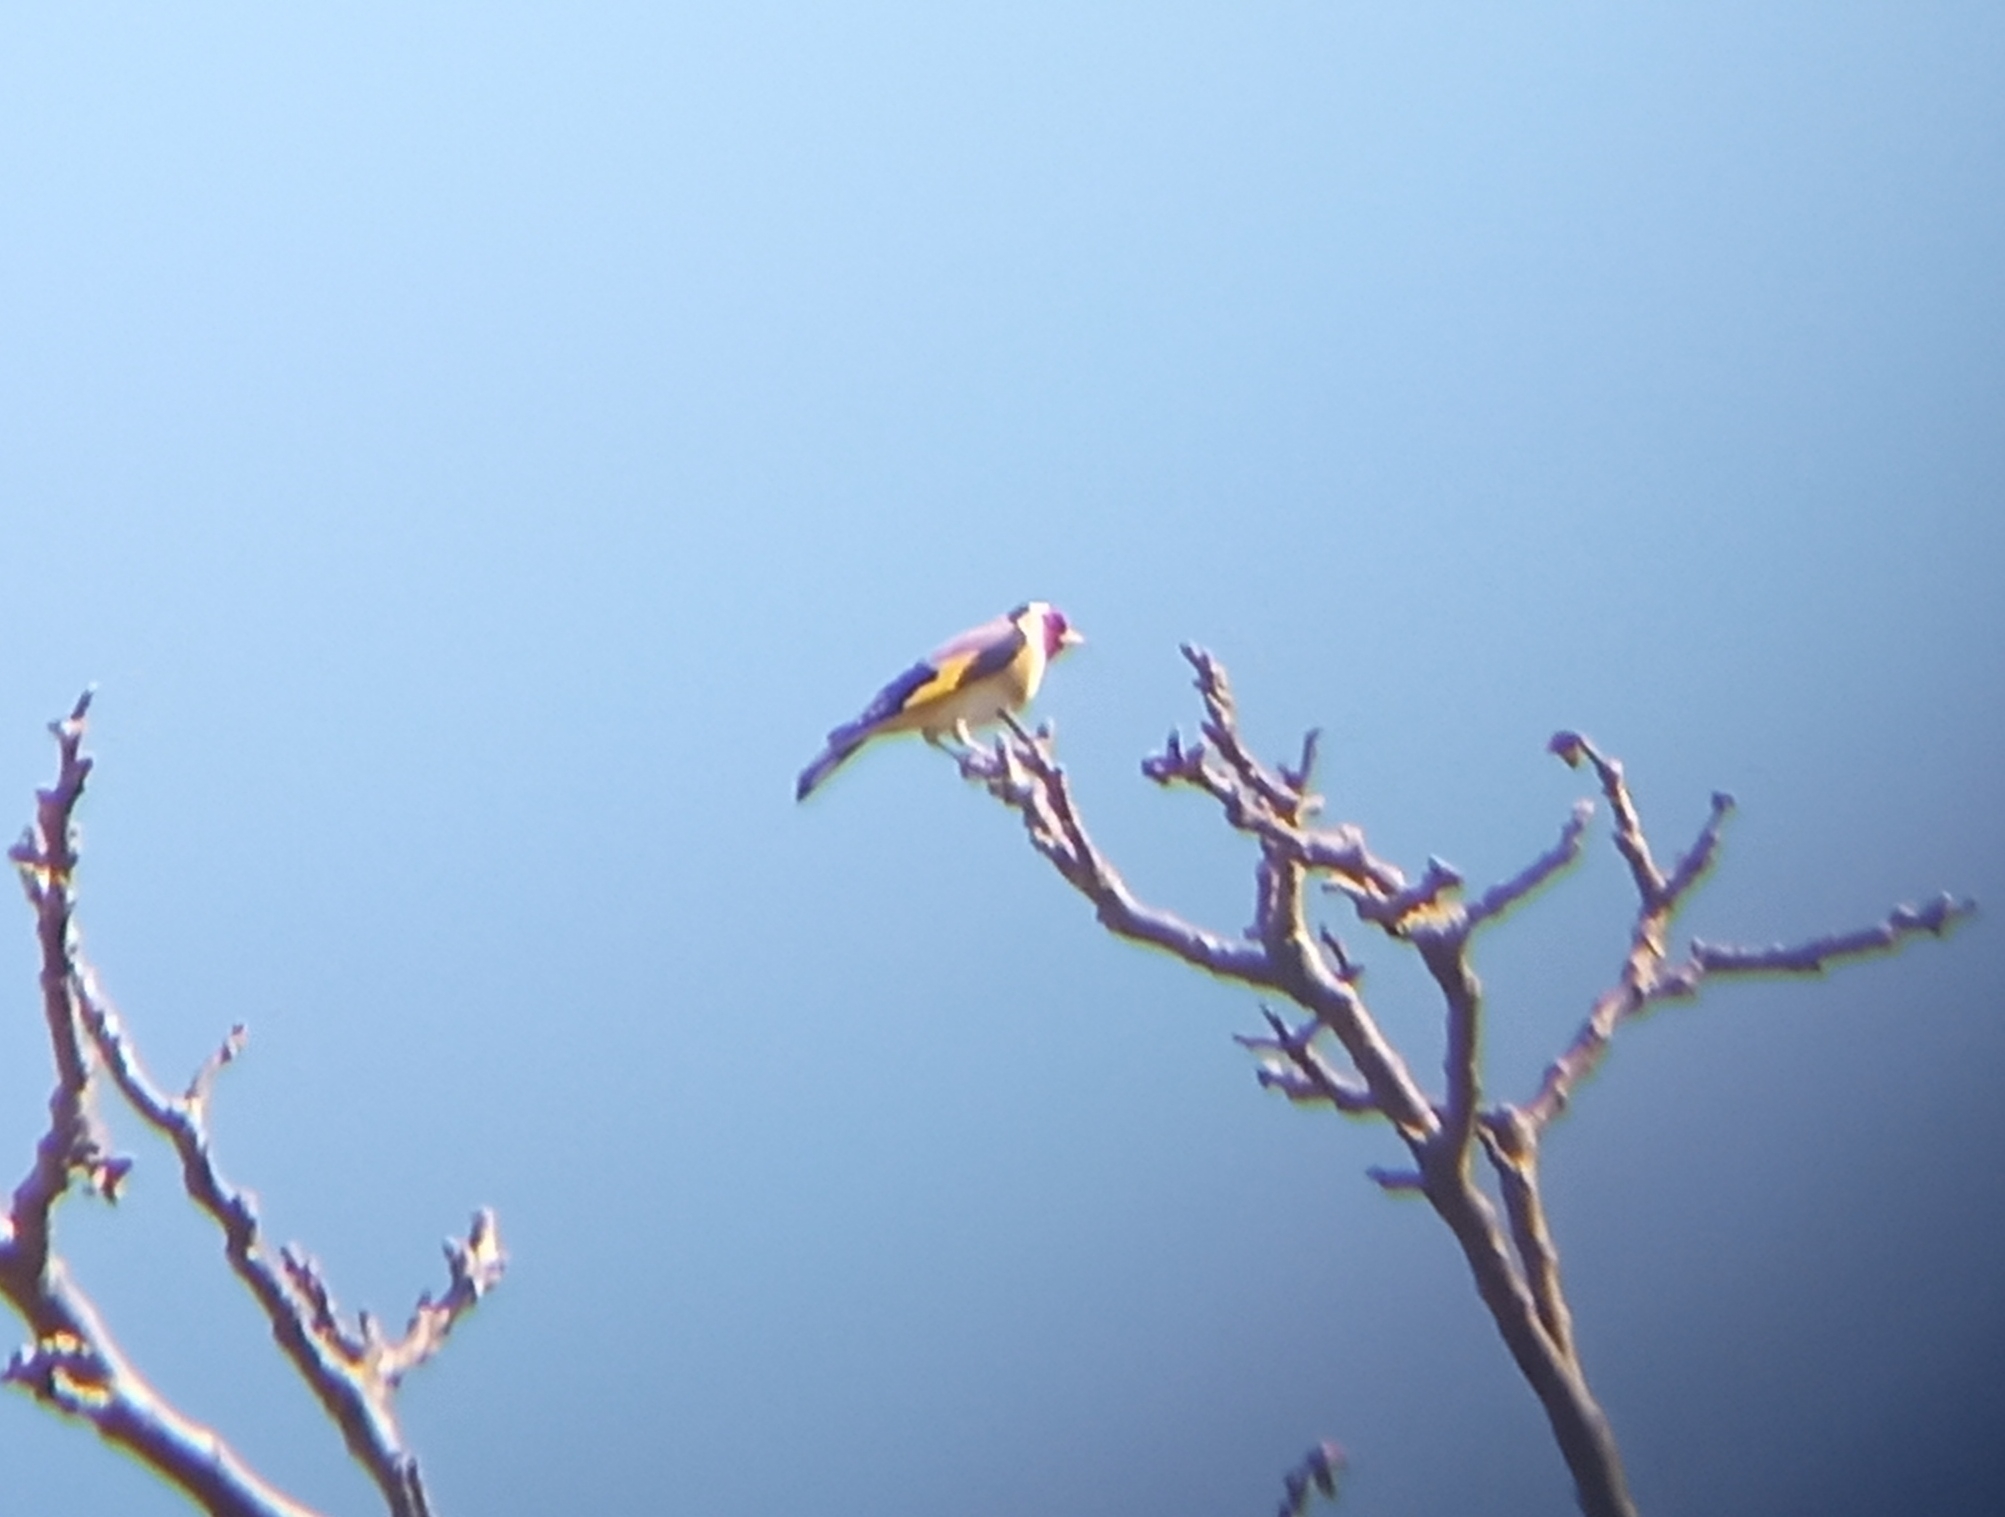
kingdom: Animalia
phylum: Chordata
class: Aves
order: Passeriformes
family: Fringillidae
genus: Carduelis
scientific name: Carduelis carduelis
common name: European goldfinch
